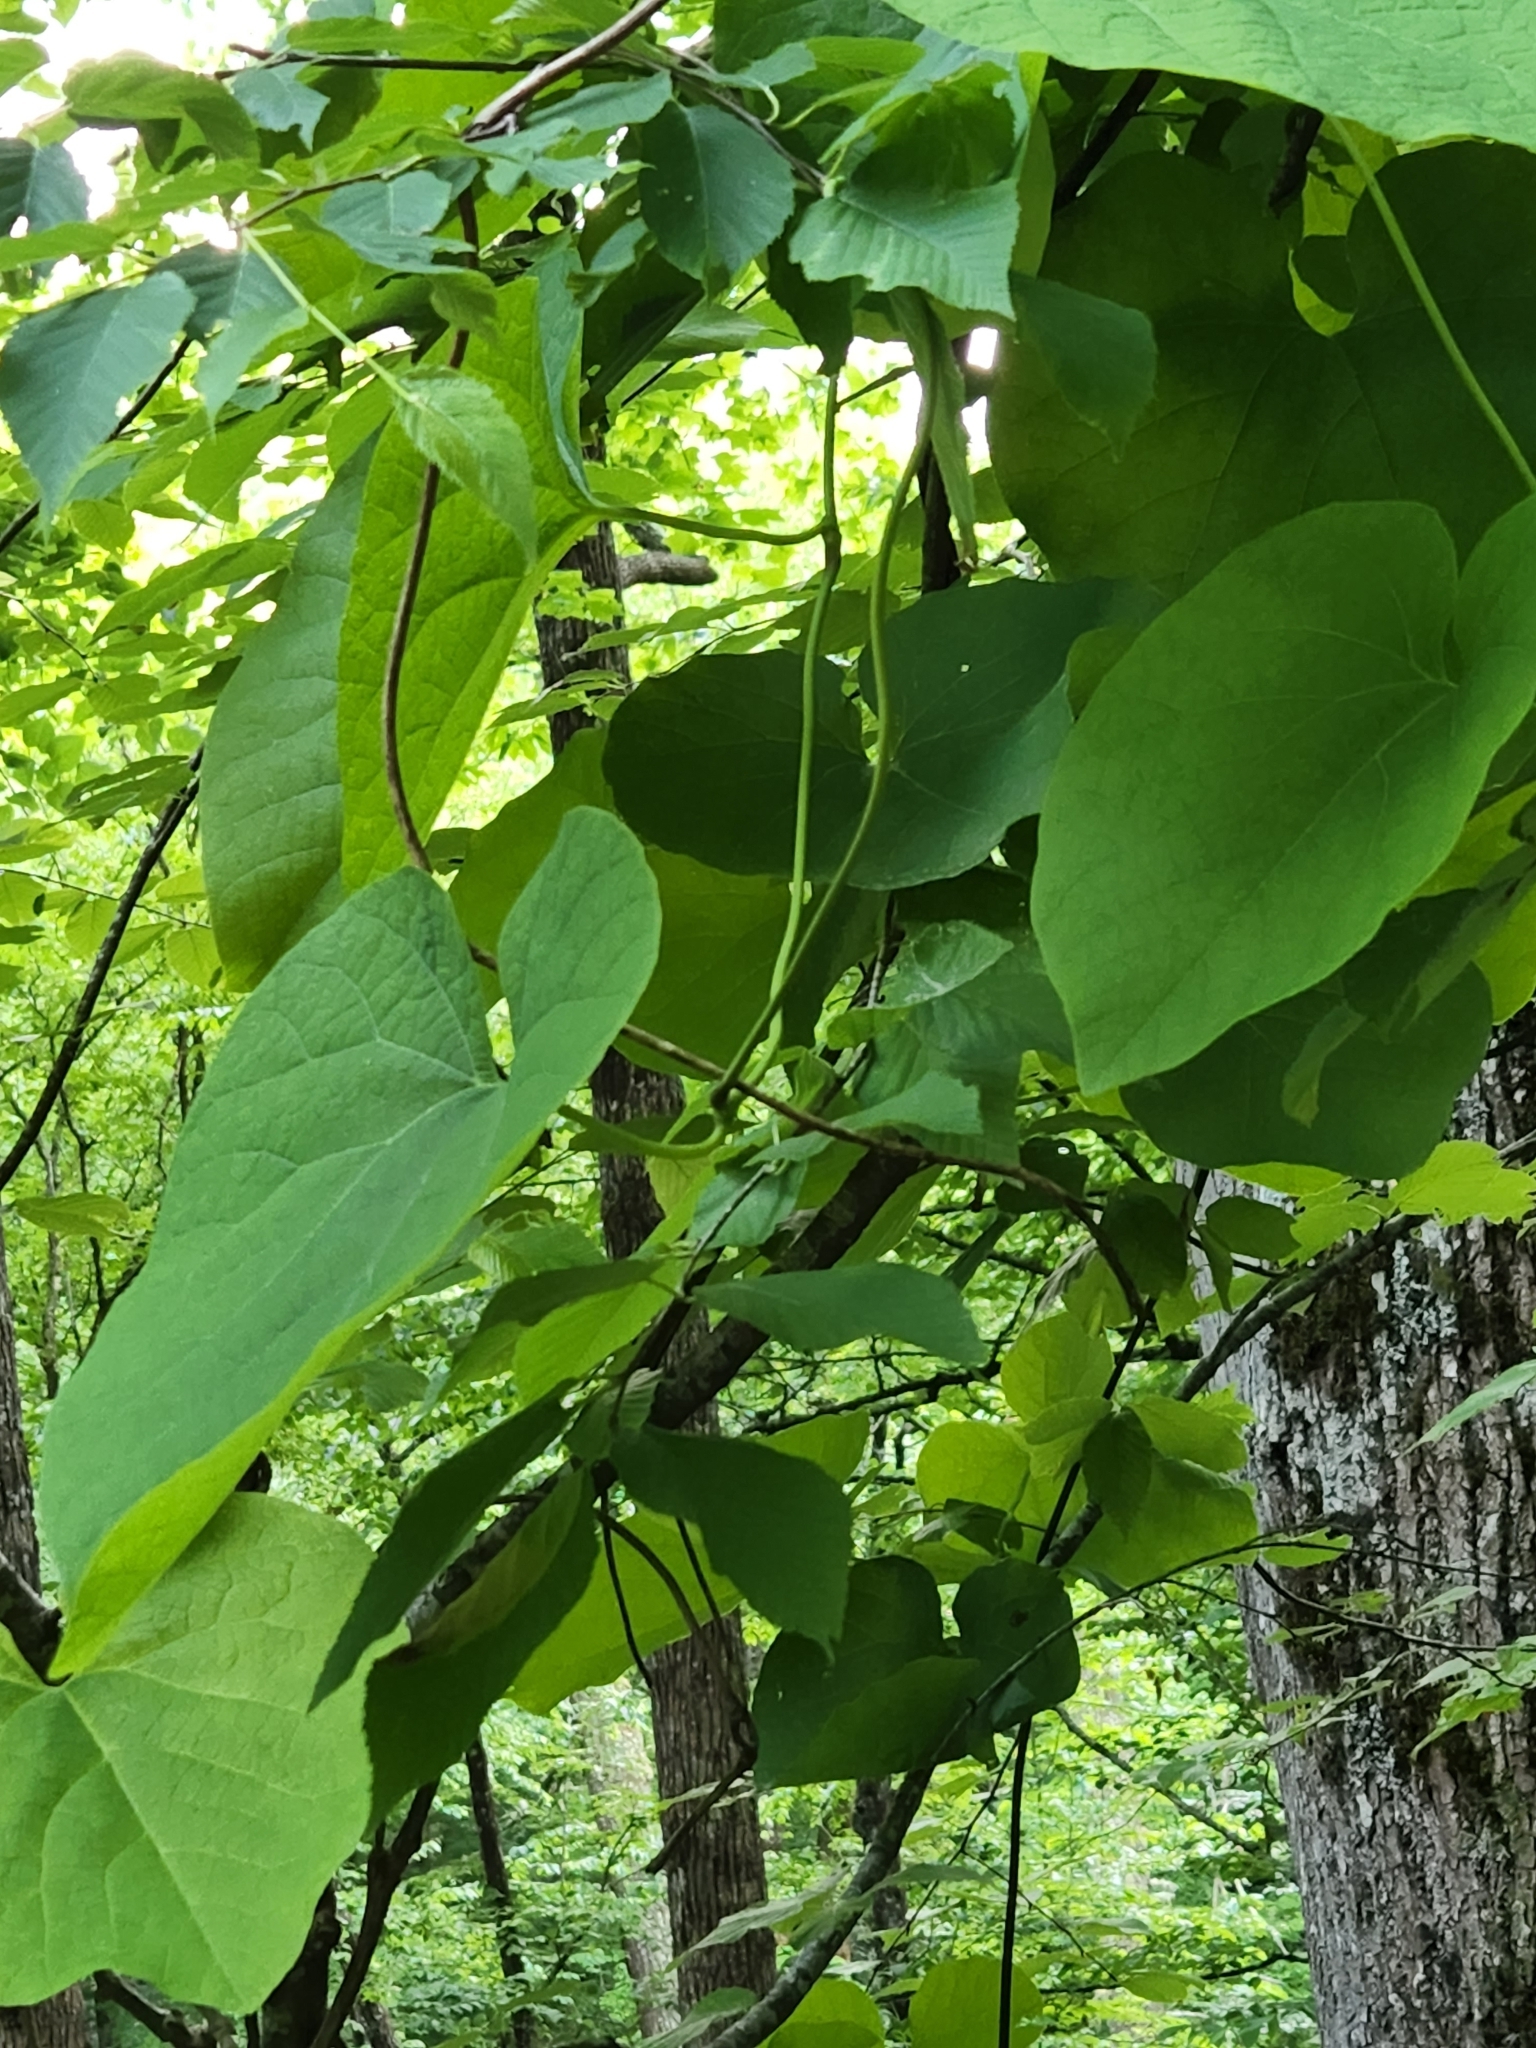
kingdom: Plantae
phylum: Tracheophyta
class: Magnoliopsida
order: Piperales
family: Aristolochiaceae
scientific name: Aristolochiaceae
